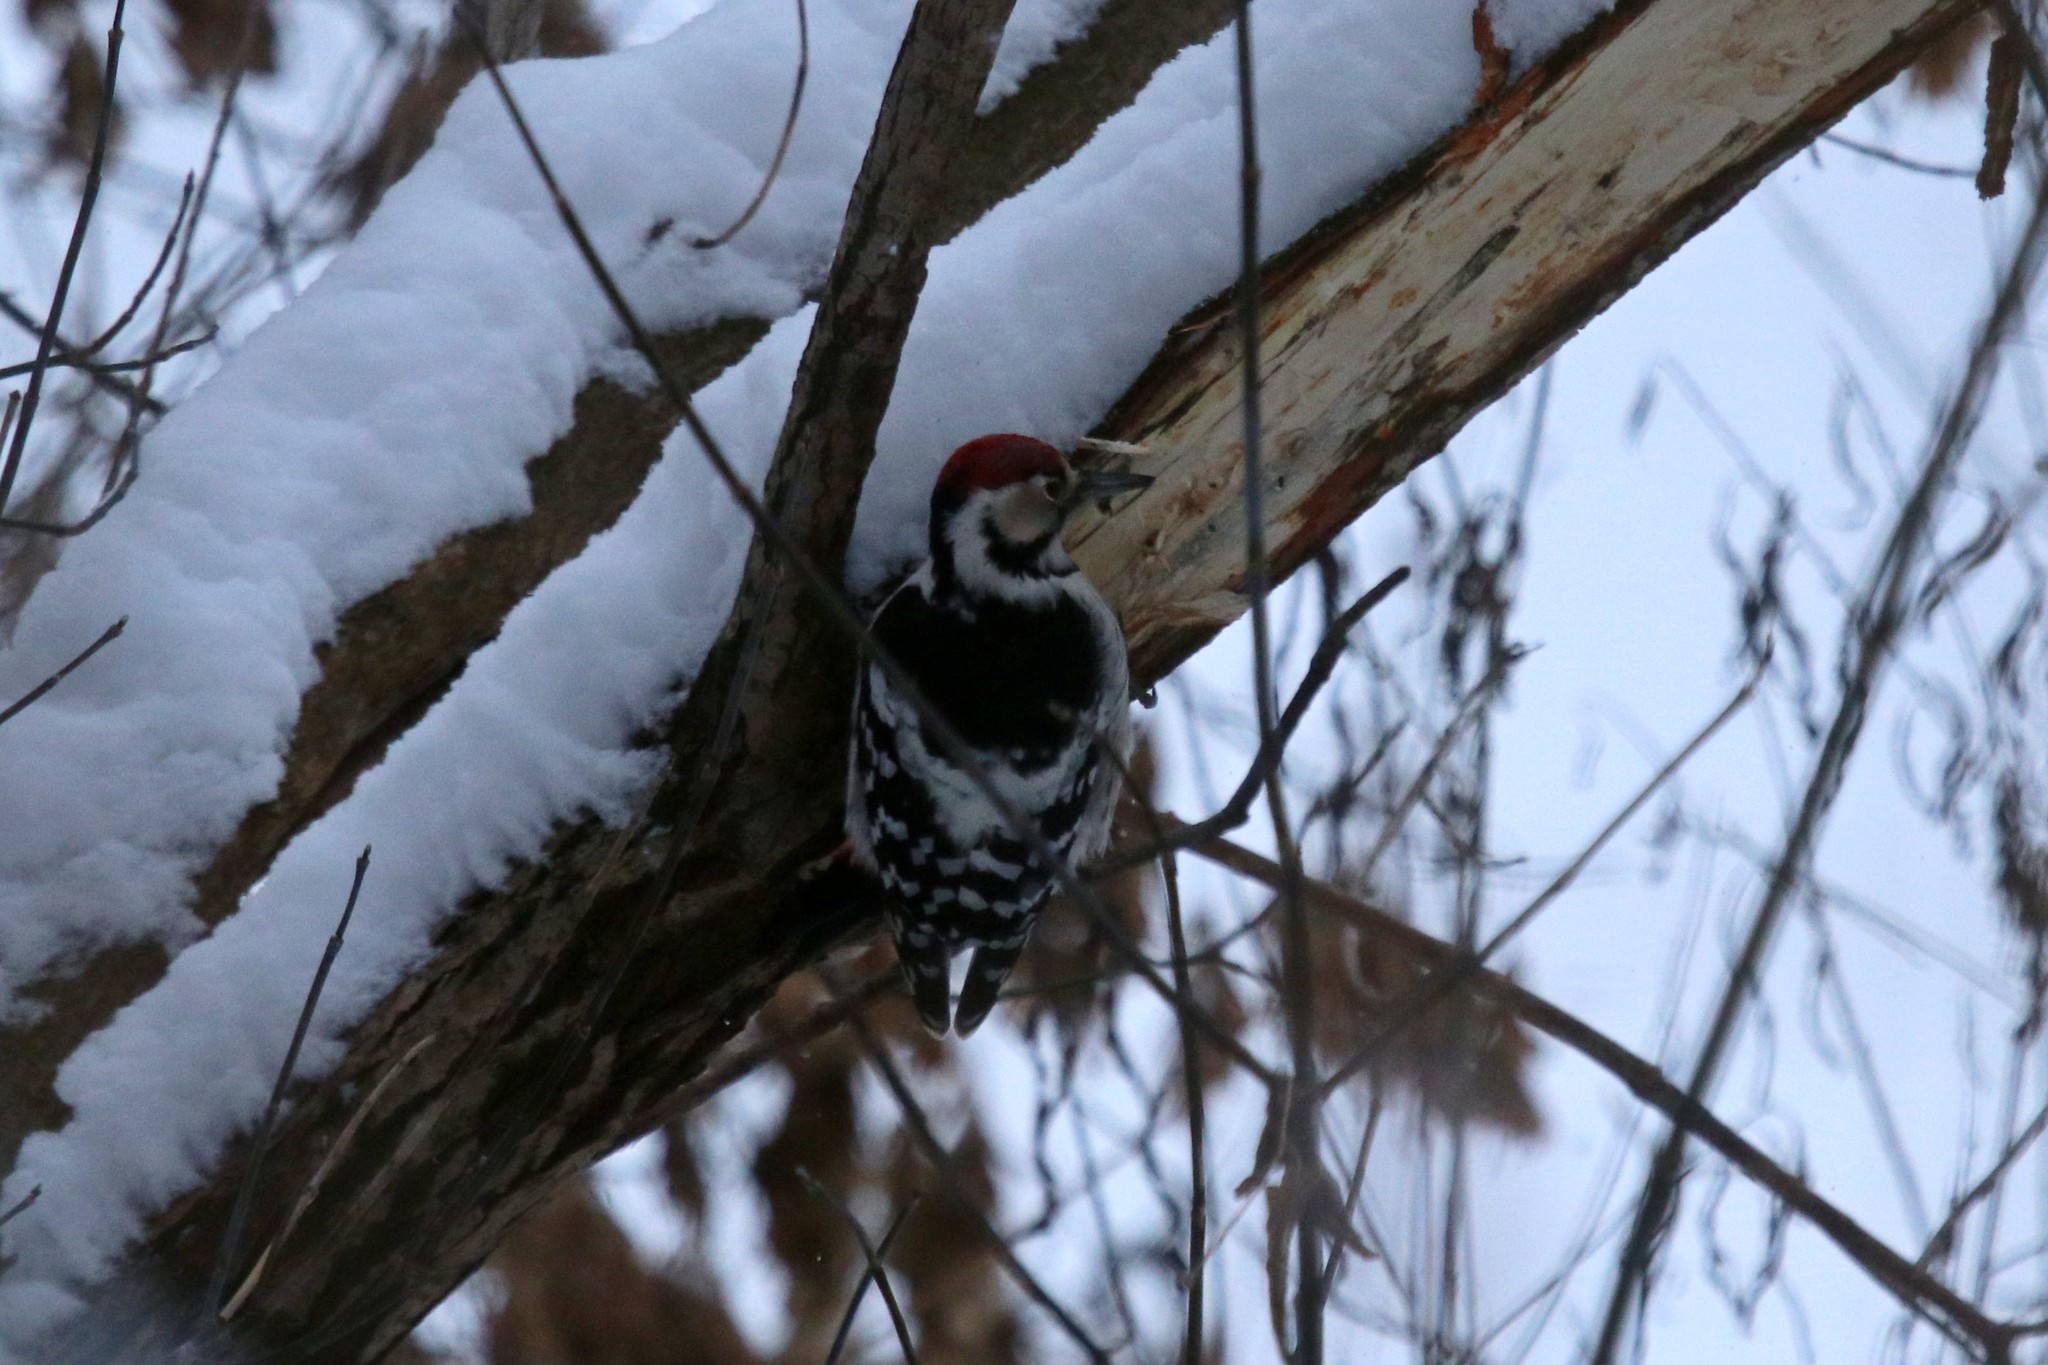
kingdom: Animalia
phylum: Chordata
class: Aves
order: Piciformes
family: Picidae
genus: Dendrocopos
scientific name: Dendrocopos leucotos
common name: White-backed woodpecker
